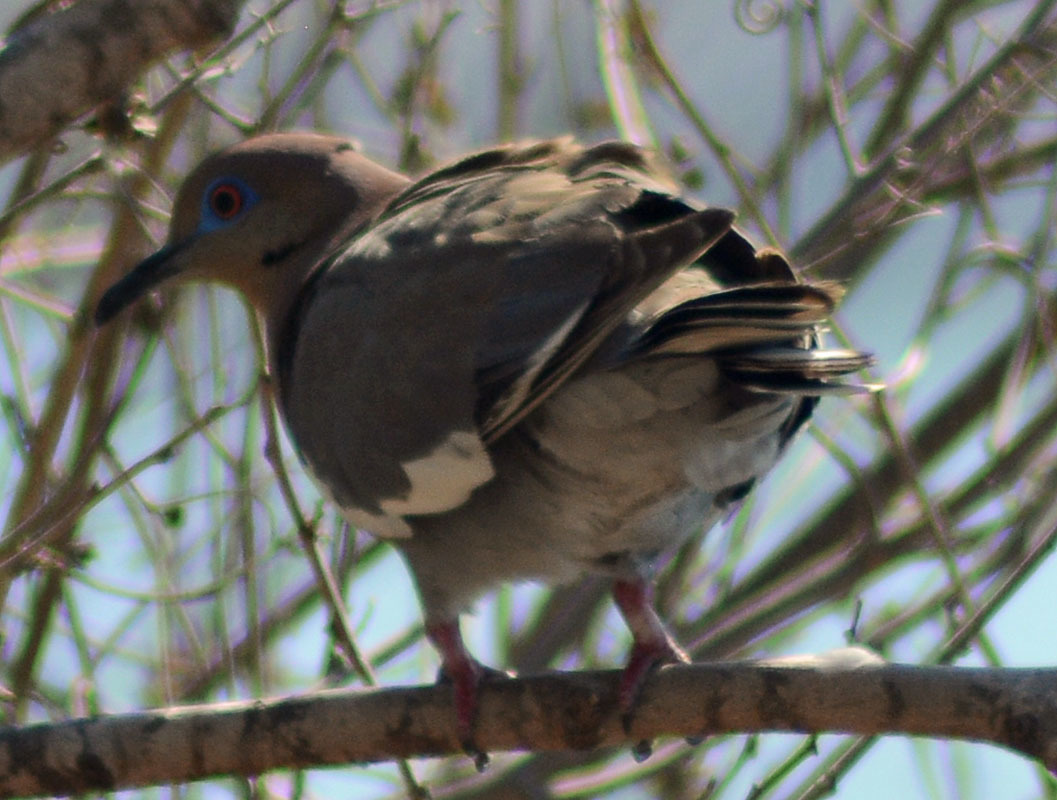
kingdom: Animalia
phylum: Chordata
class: Aves
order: Columbiformes
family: Columbidae
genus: Zenaida
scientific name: Zenaida asiatica
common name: White-winged dove
